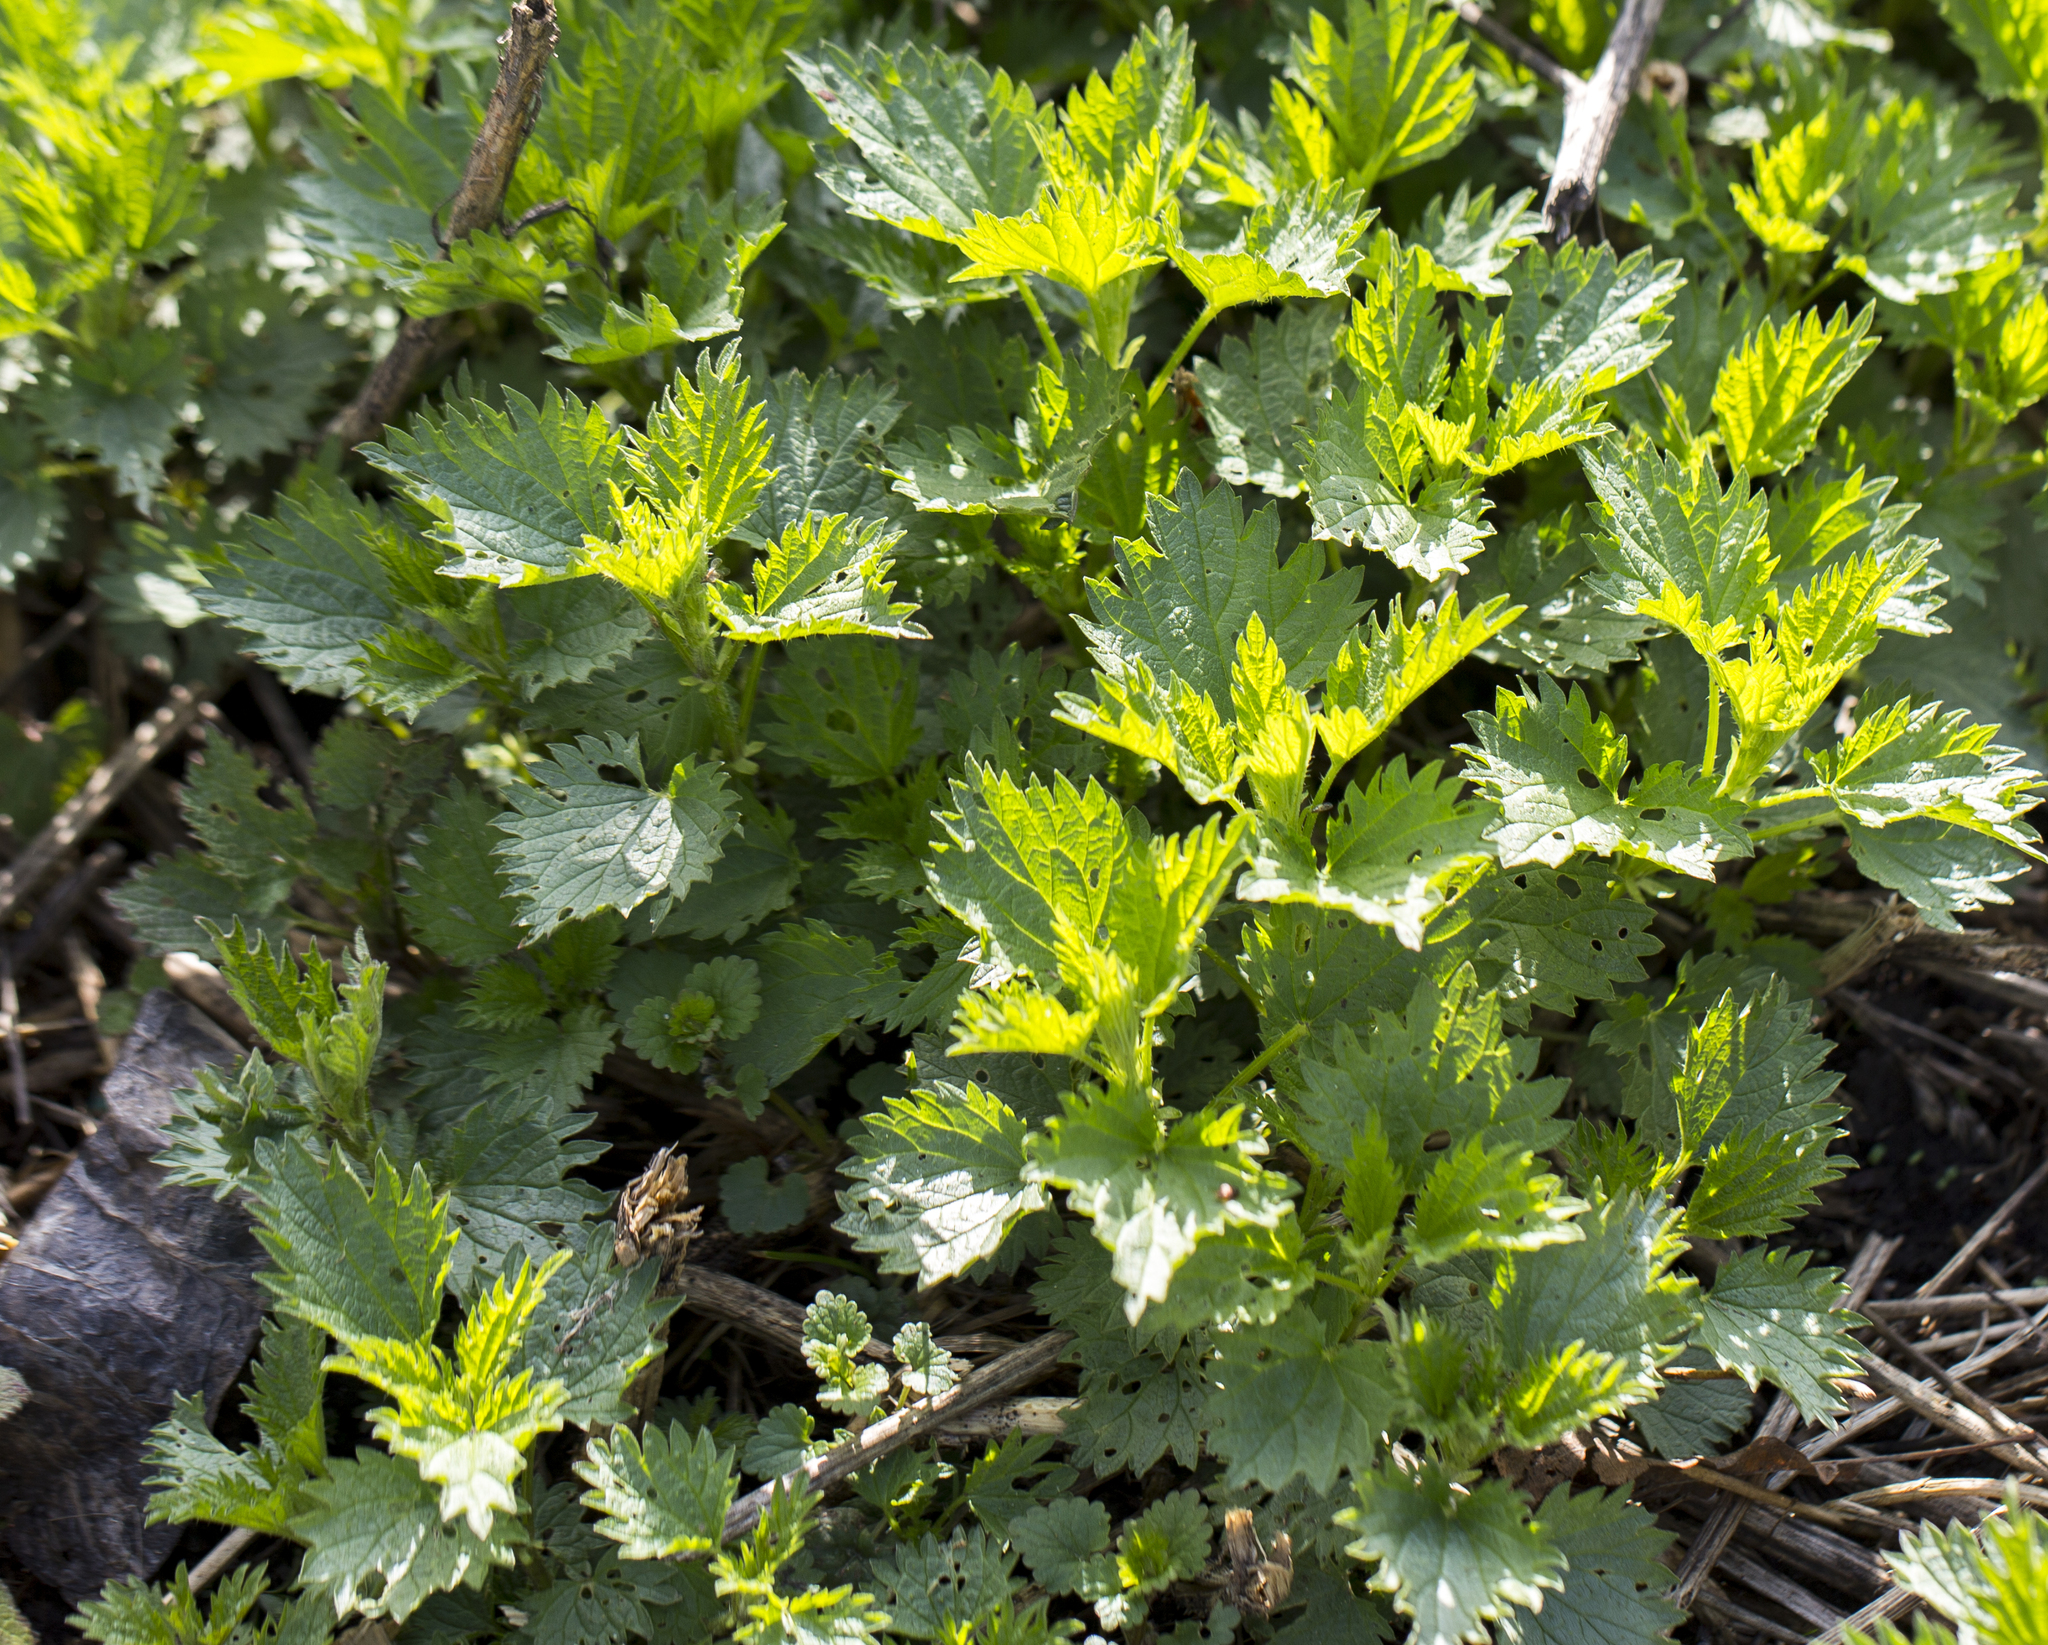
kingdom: Plantae
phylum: Tracheophyta
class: Magnoliopsida
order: Rosales
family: Urticaceae
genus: Urtica
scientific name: Urtica dioica
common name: Common nettle
